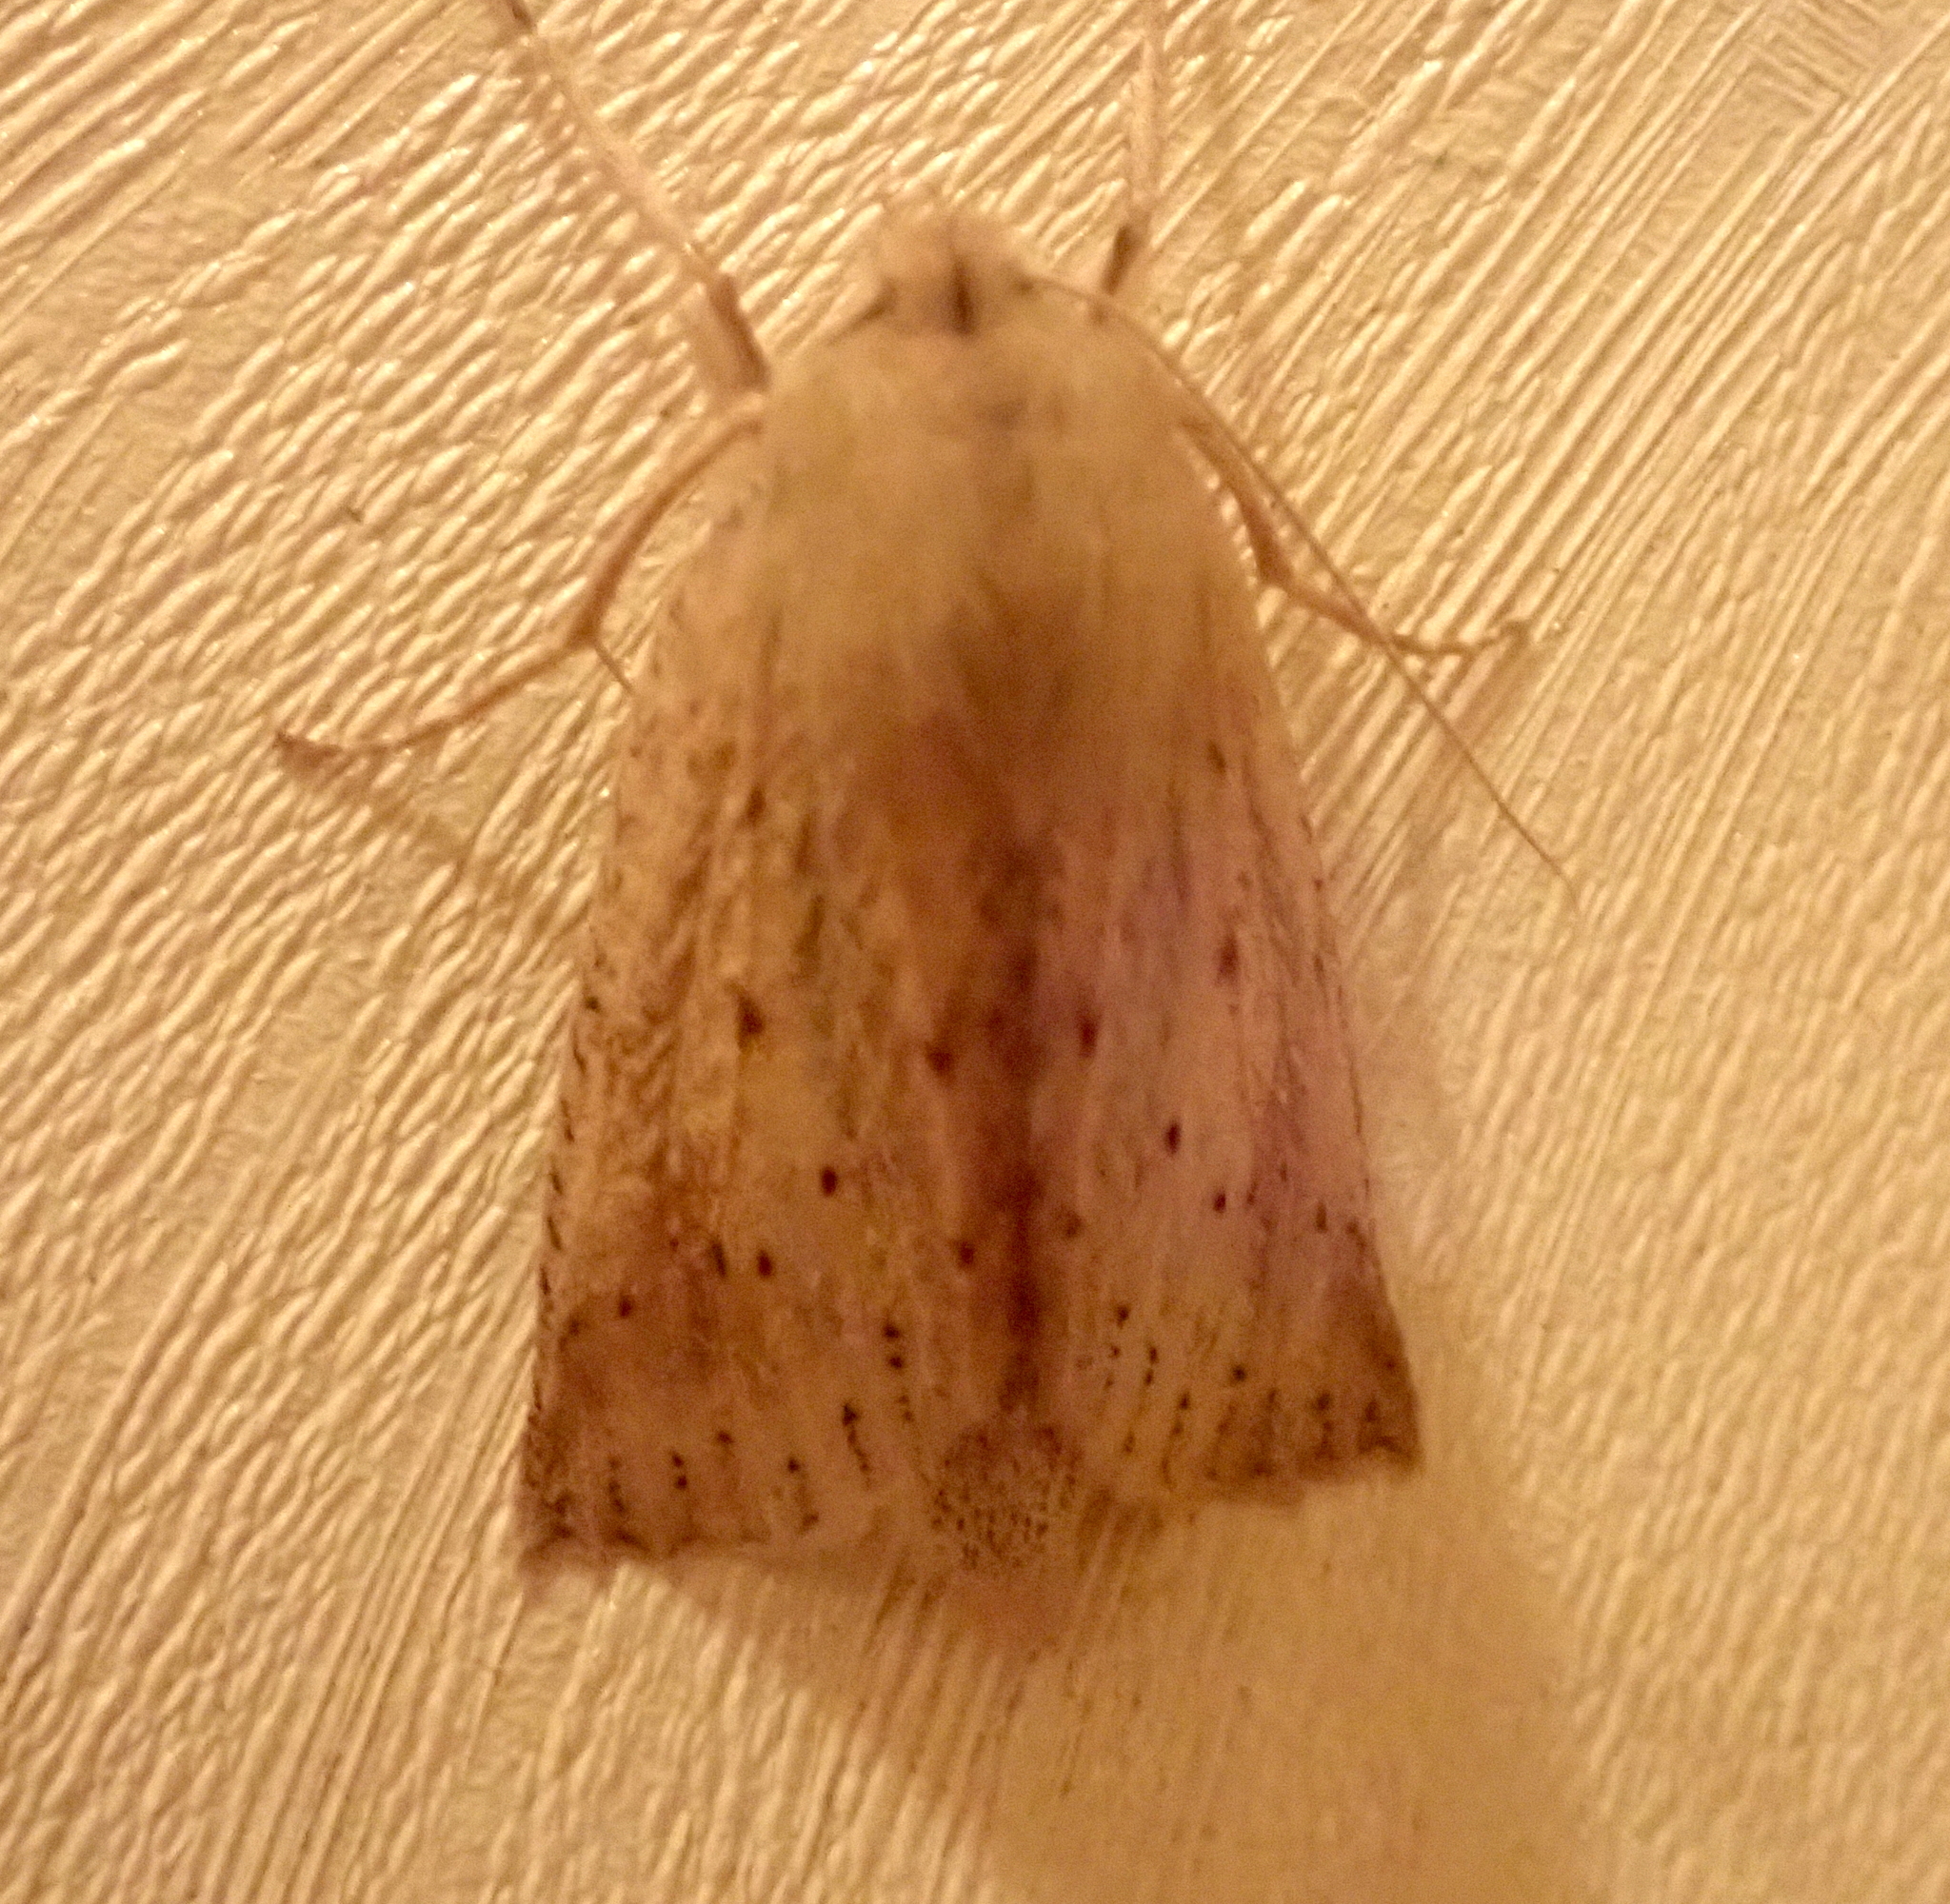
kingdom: Animalia
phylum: Arthropoda
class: Insecta
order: Lepidoptera
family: Geometridae
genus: Declana
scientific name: Declana leptomera
